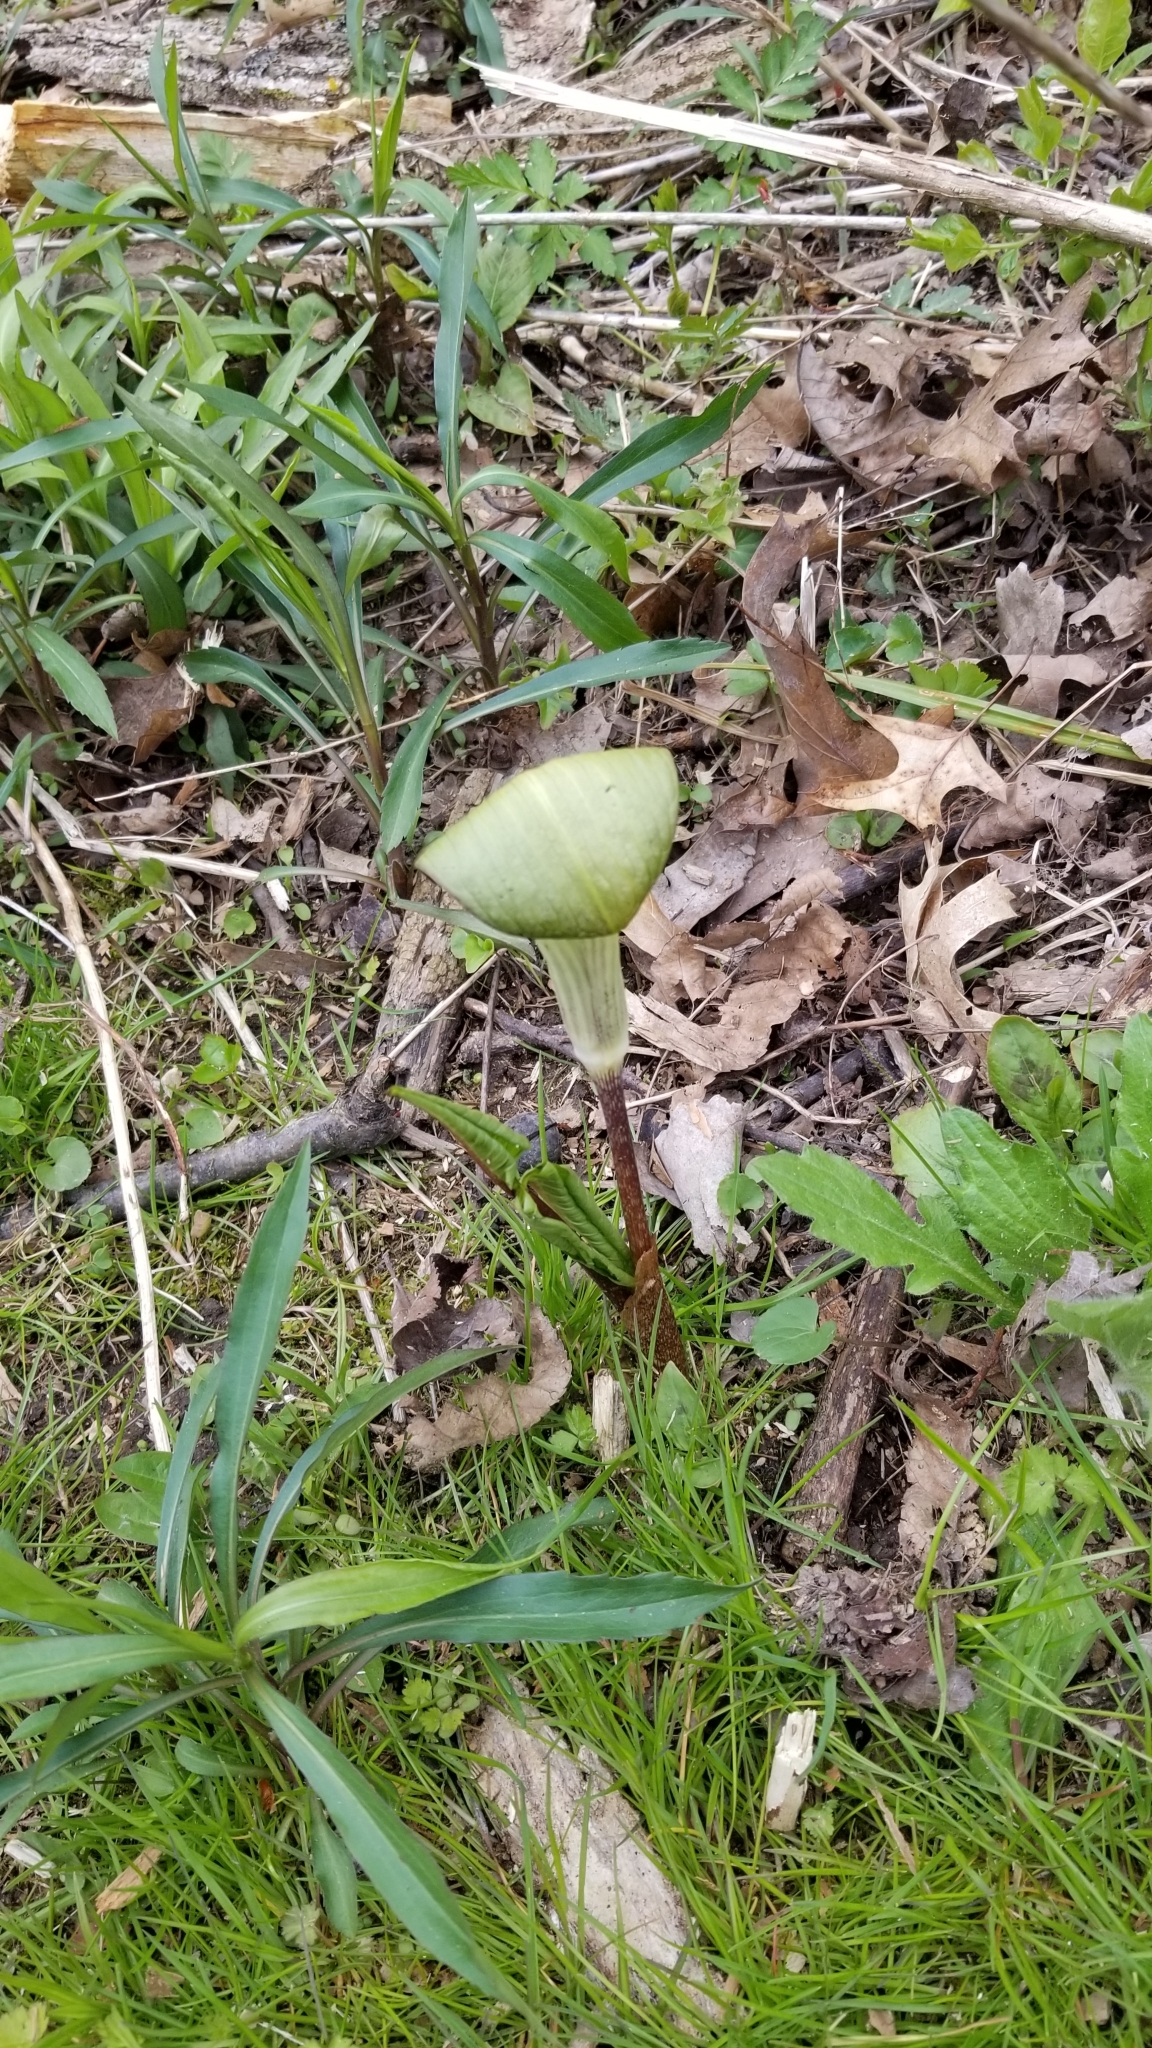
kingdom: Plantae
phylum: Tracheophyta
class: Liliopsida
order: Alismatales
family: Araceae
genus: Arisaema
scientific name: Arisaema triphyllum
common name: Jack-in-the-pulpit
